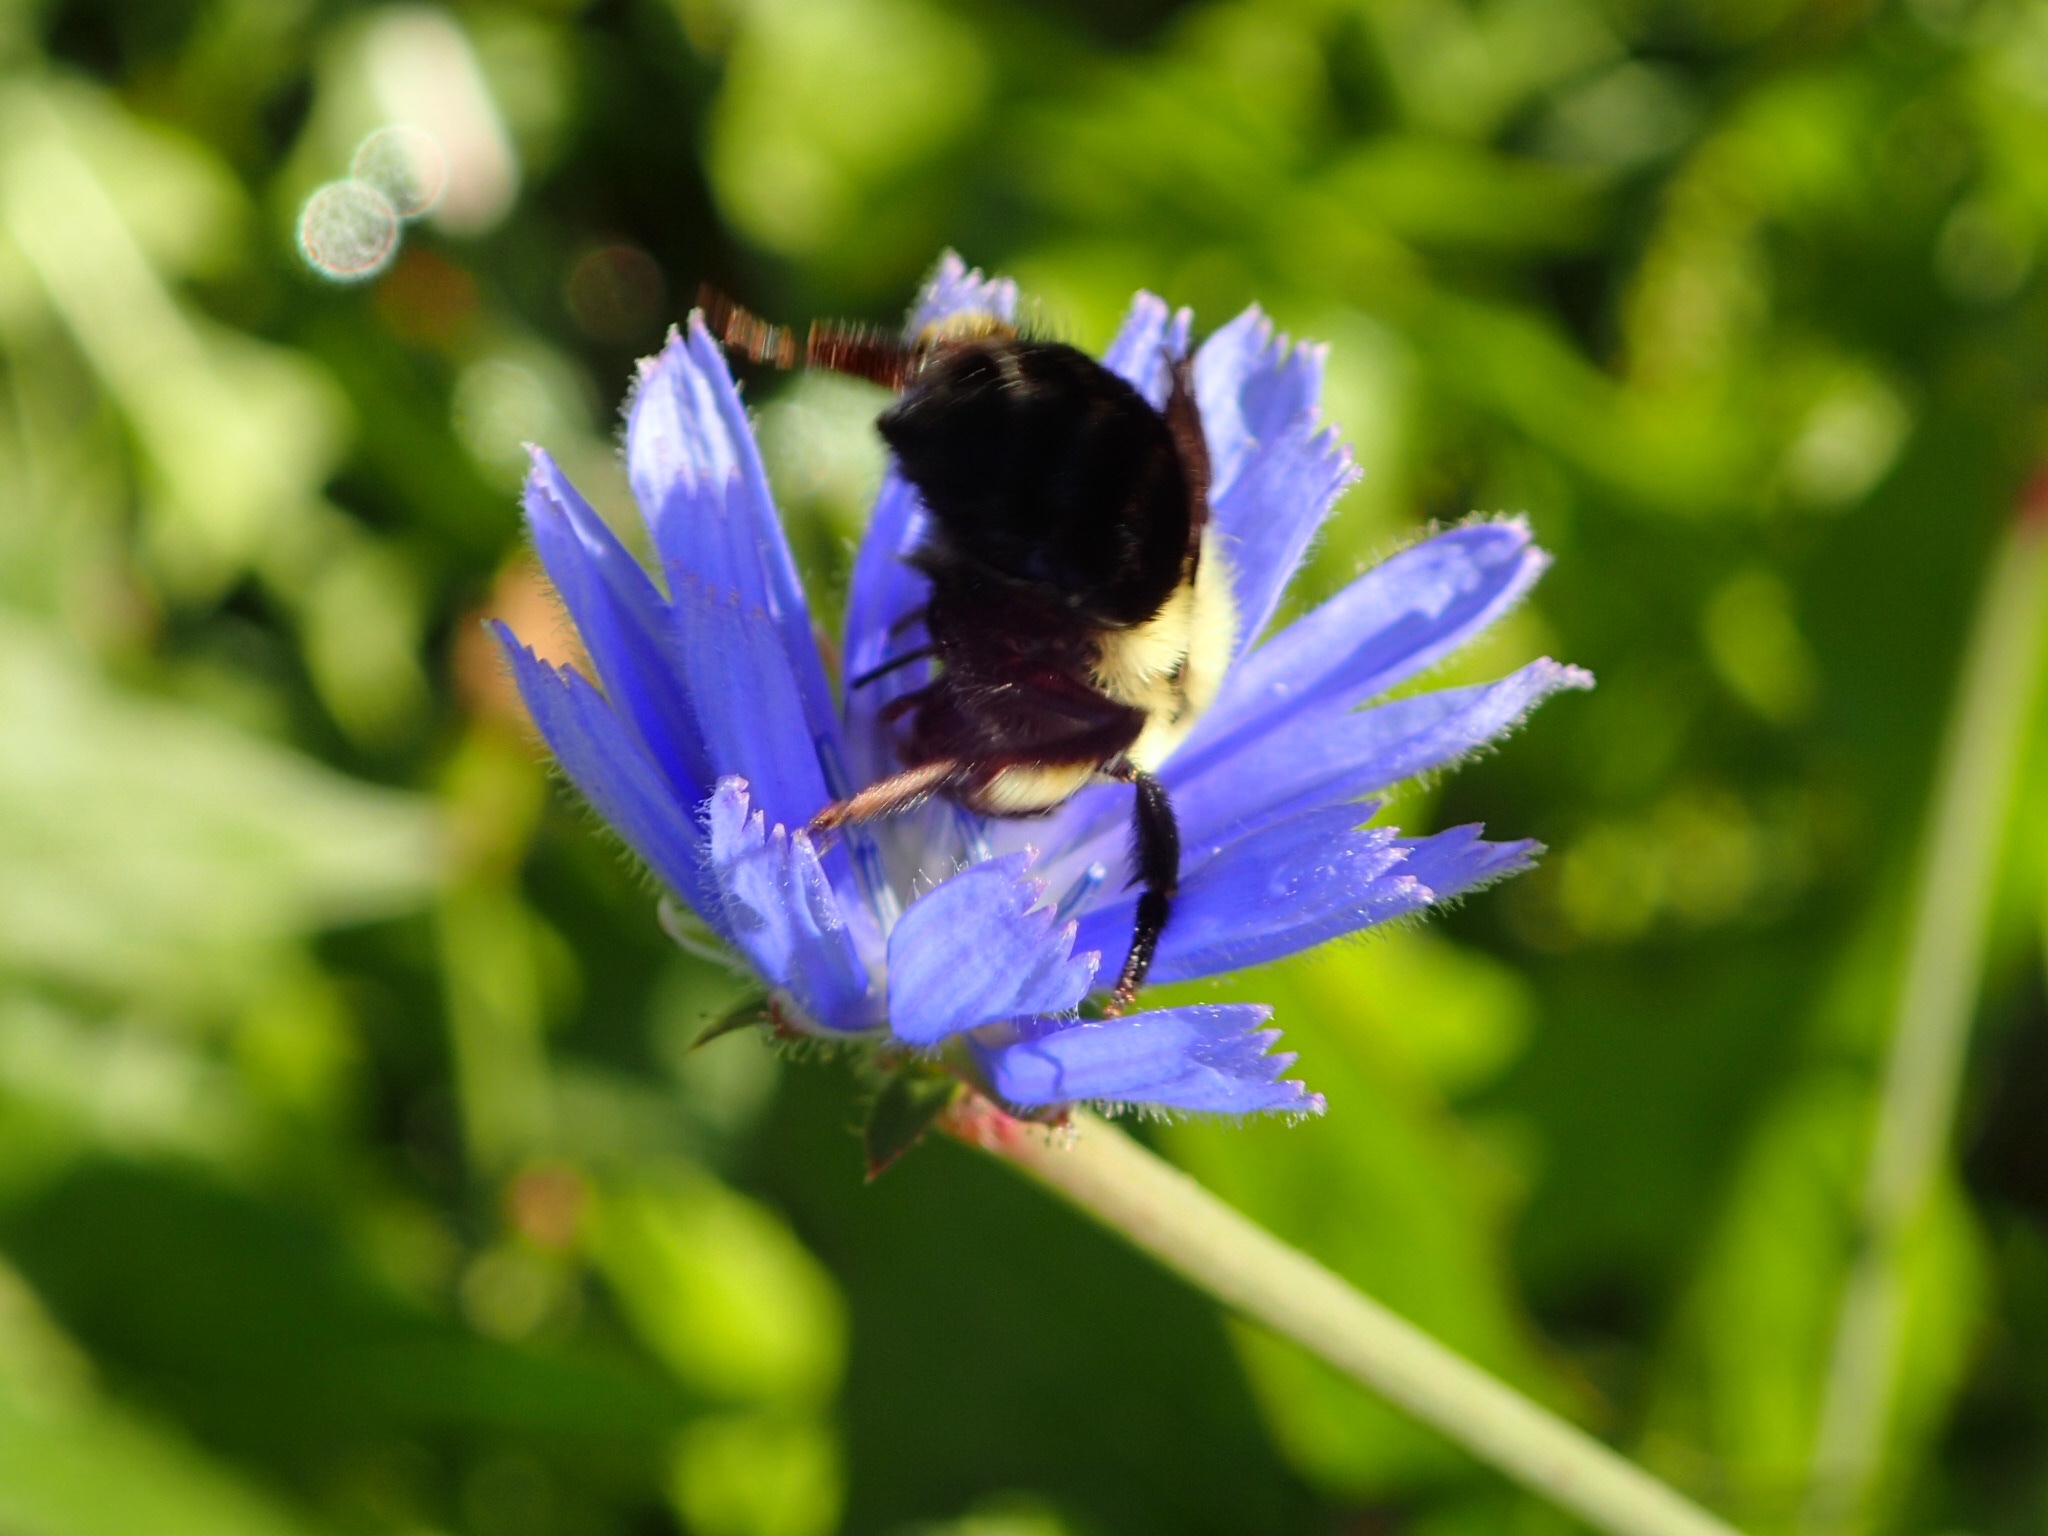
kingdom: Animalia
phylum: Arthropoda
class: Insecta
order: Hymenoptera
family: Apidae
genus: Bombus
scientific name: Bombus impatiens
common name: Common eastern bumble bee
